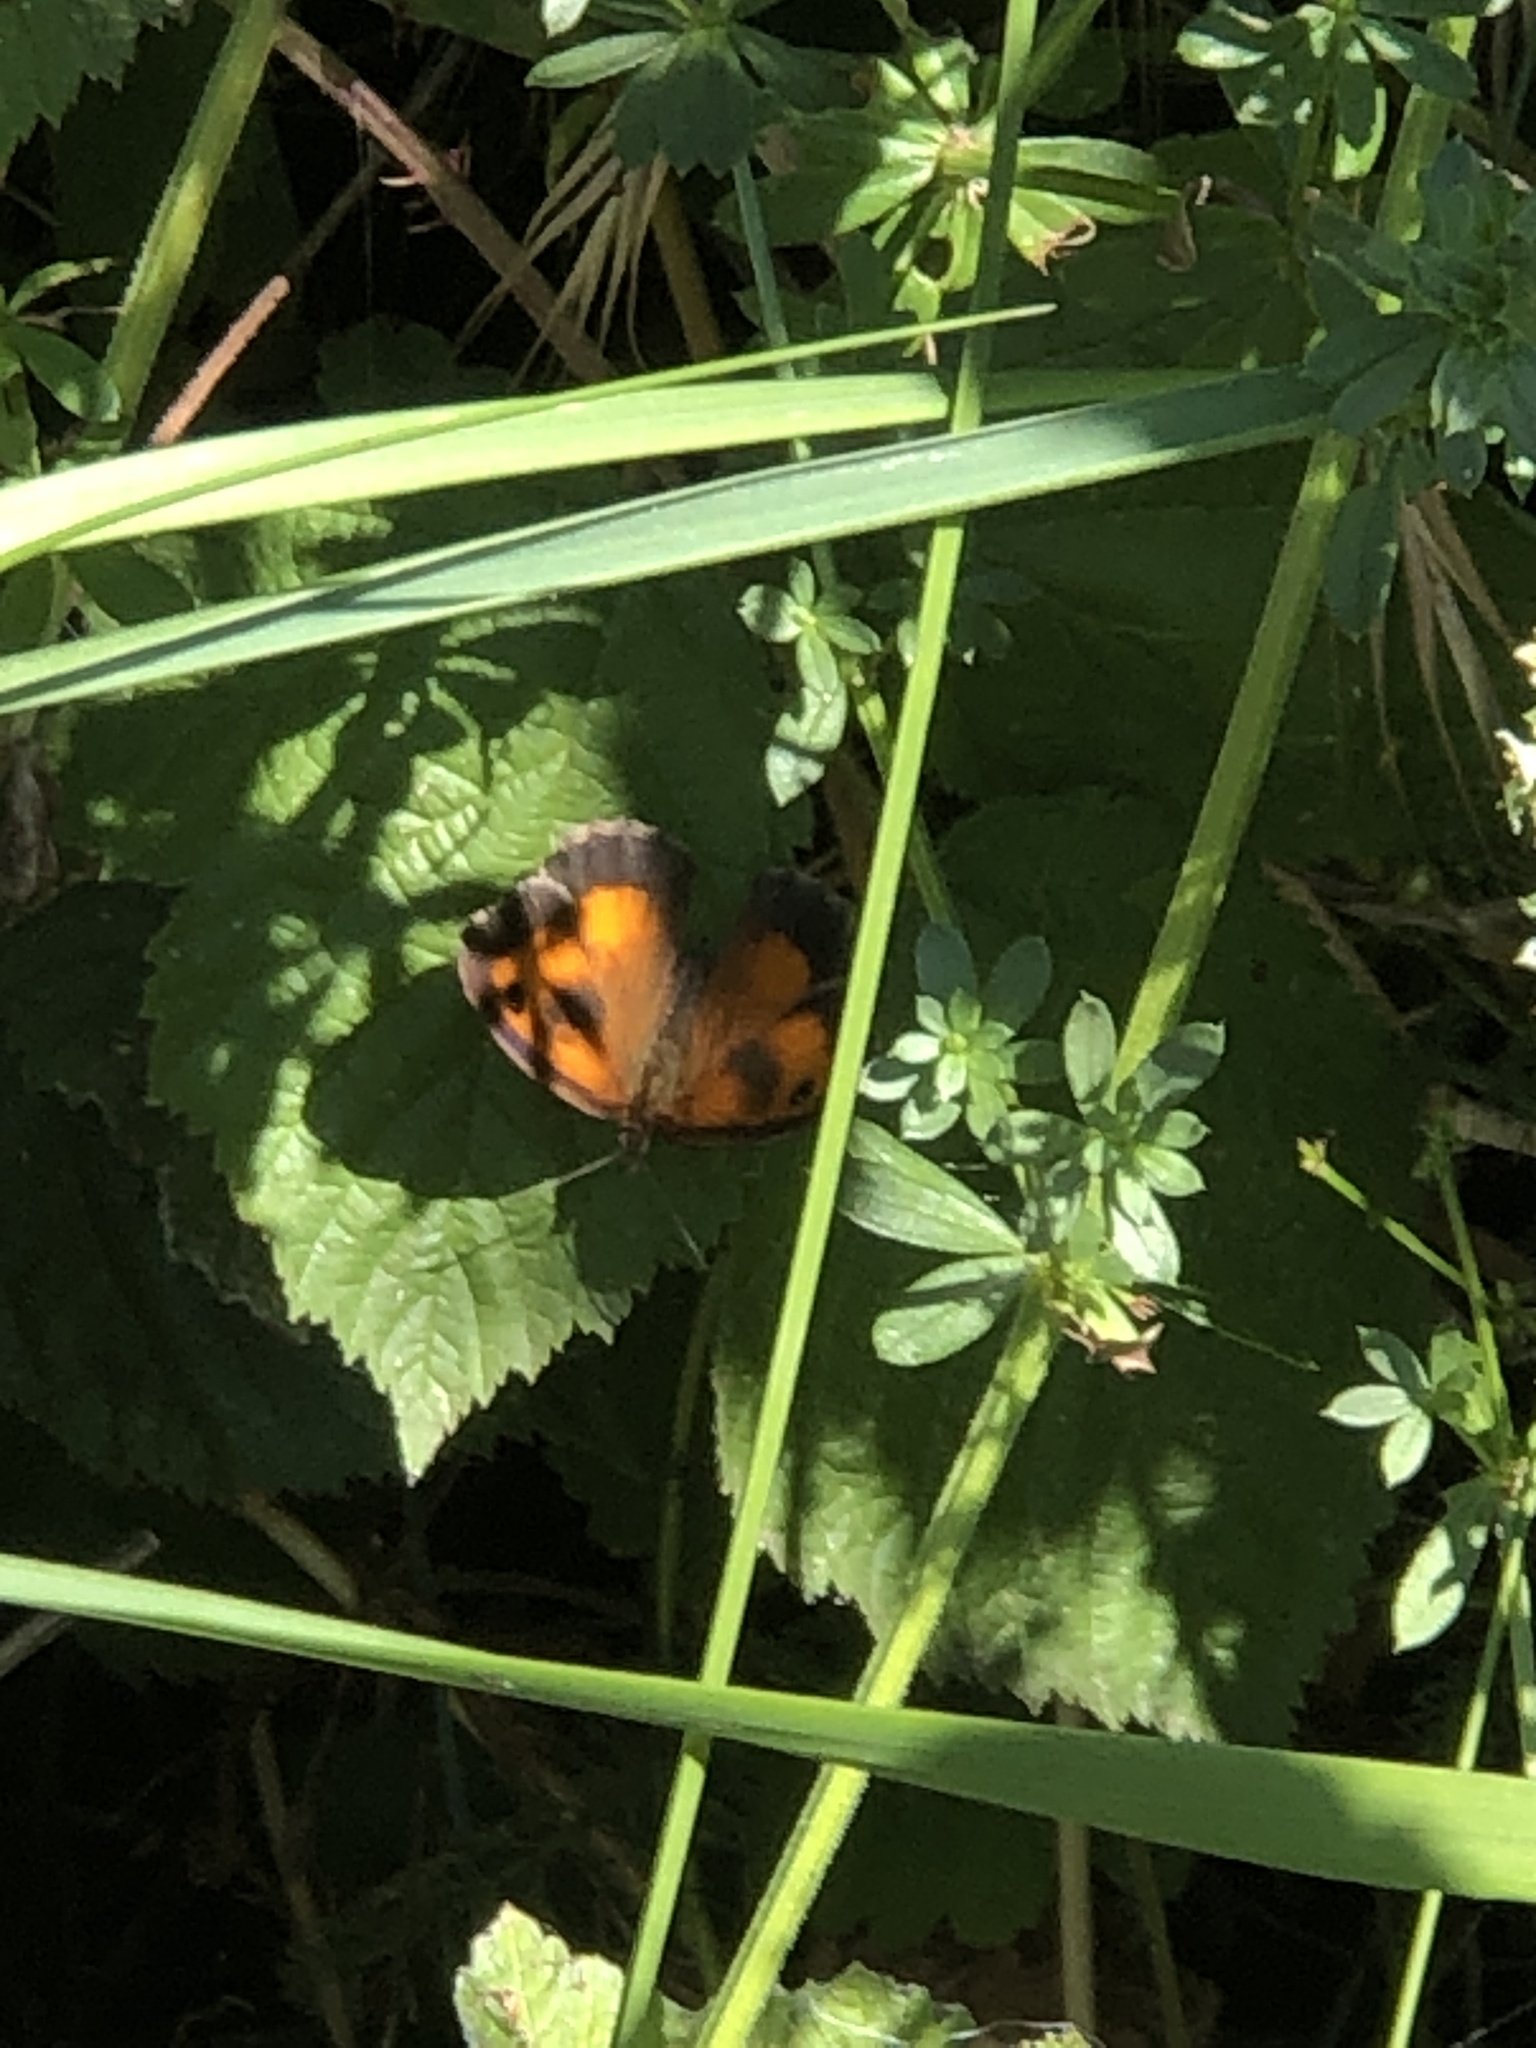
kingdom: Animalia
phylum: Arthropoda
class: Insecta
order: Lepidoptera
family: Nymphalidae
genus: Pyronia
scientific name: Pyronia tithonus
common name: Gatekeeper
